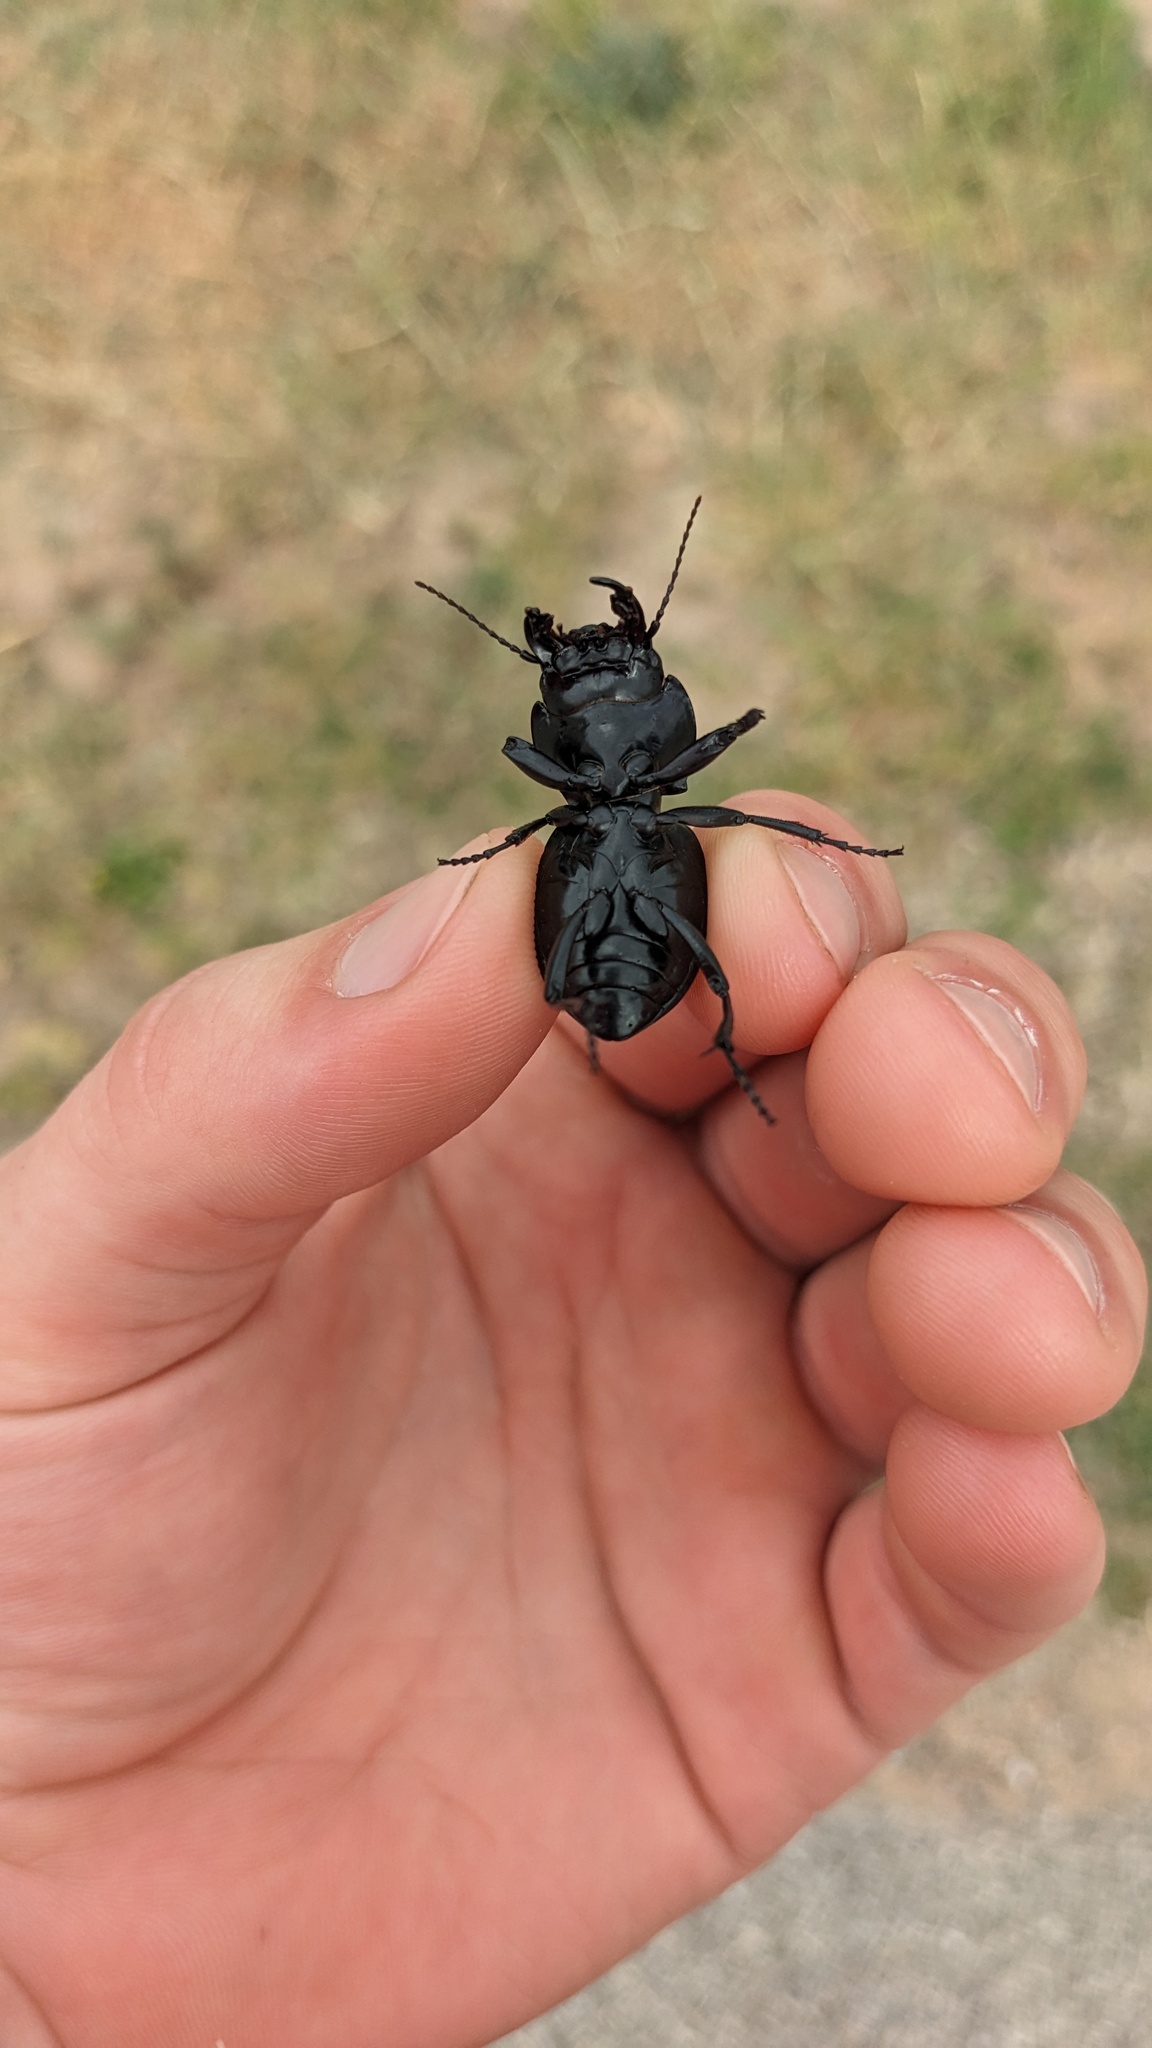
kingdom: Animalia
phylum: Arthropoda
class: Insecta
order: Coleoptera
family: Carabidae
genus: Pasimachus
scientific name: Pasimachus californicus
